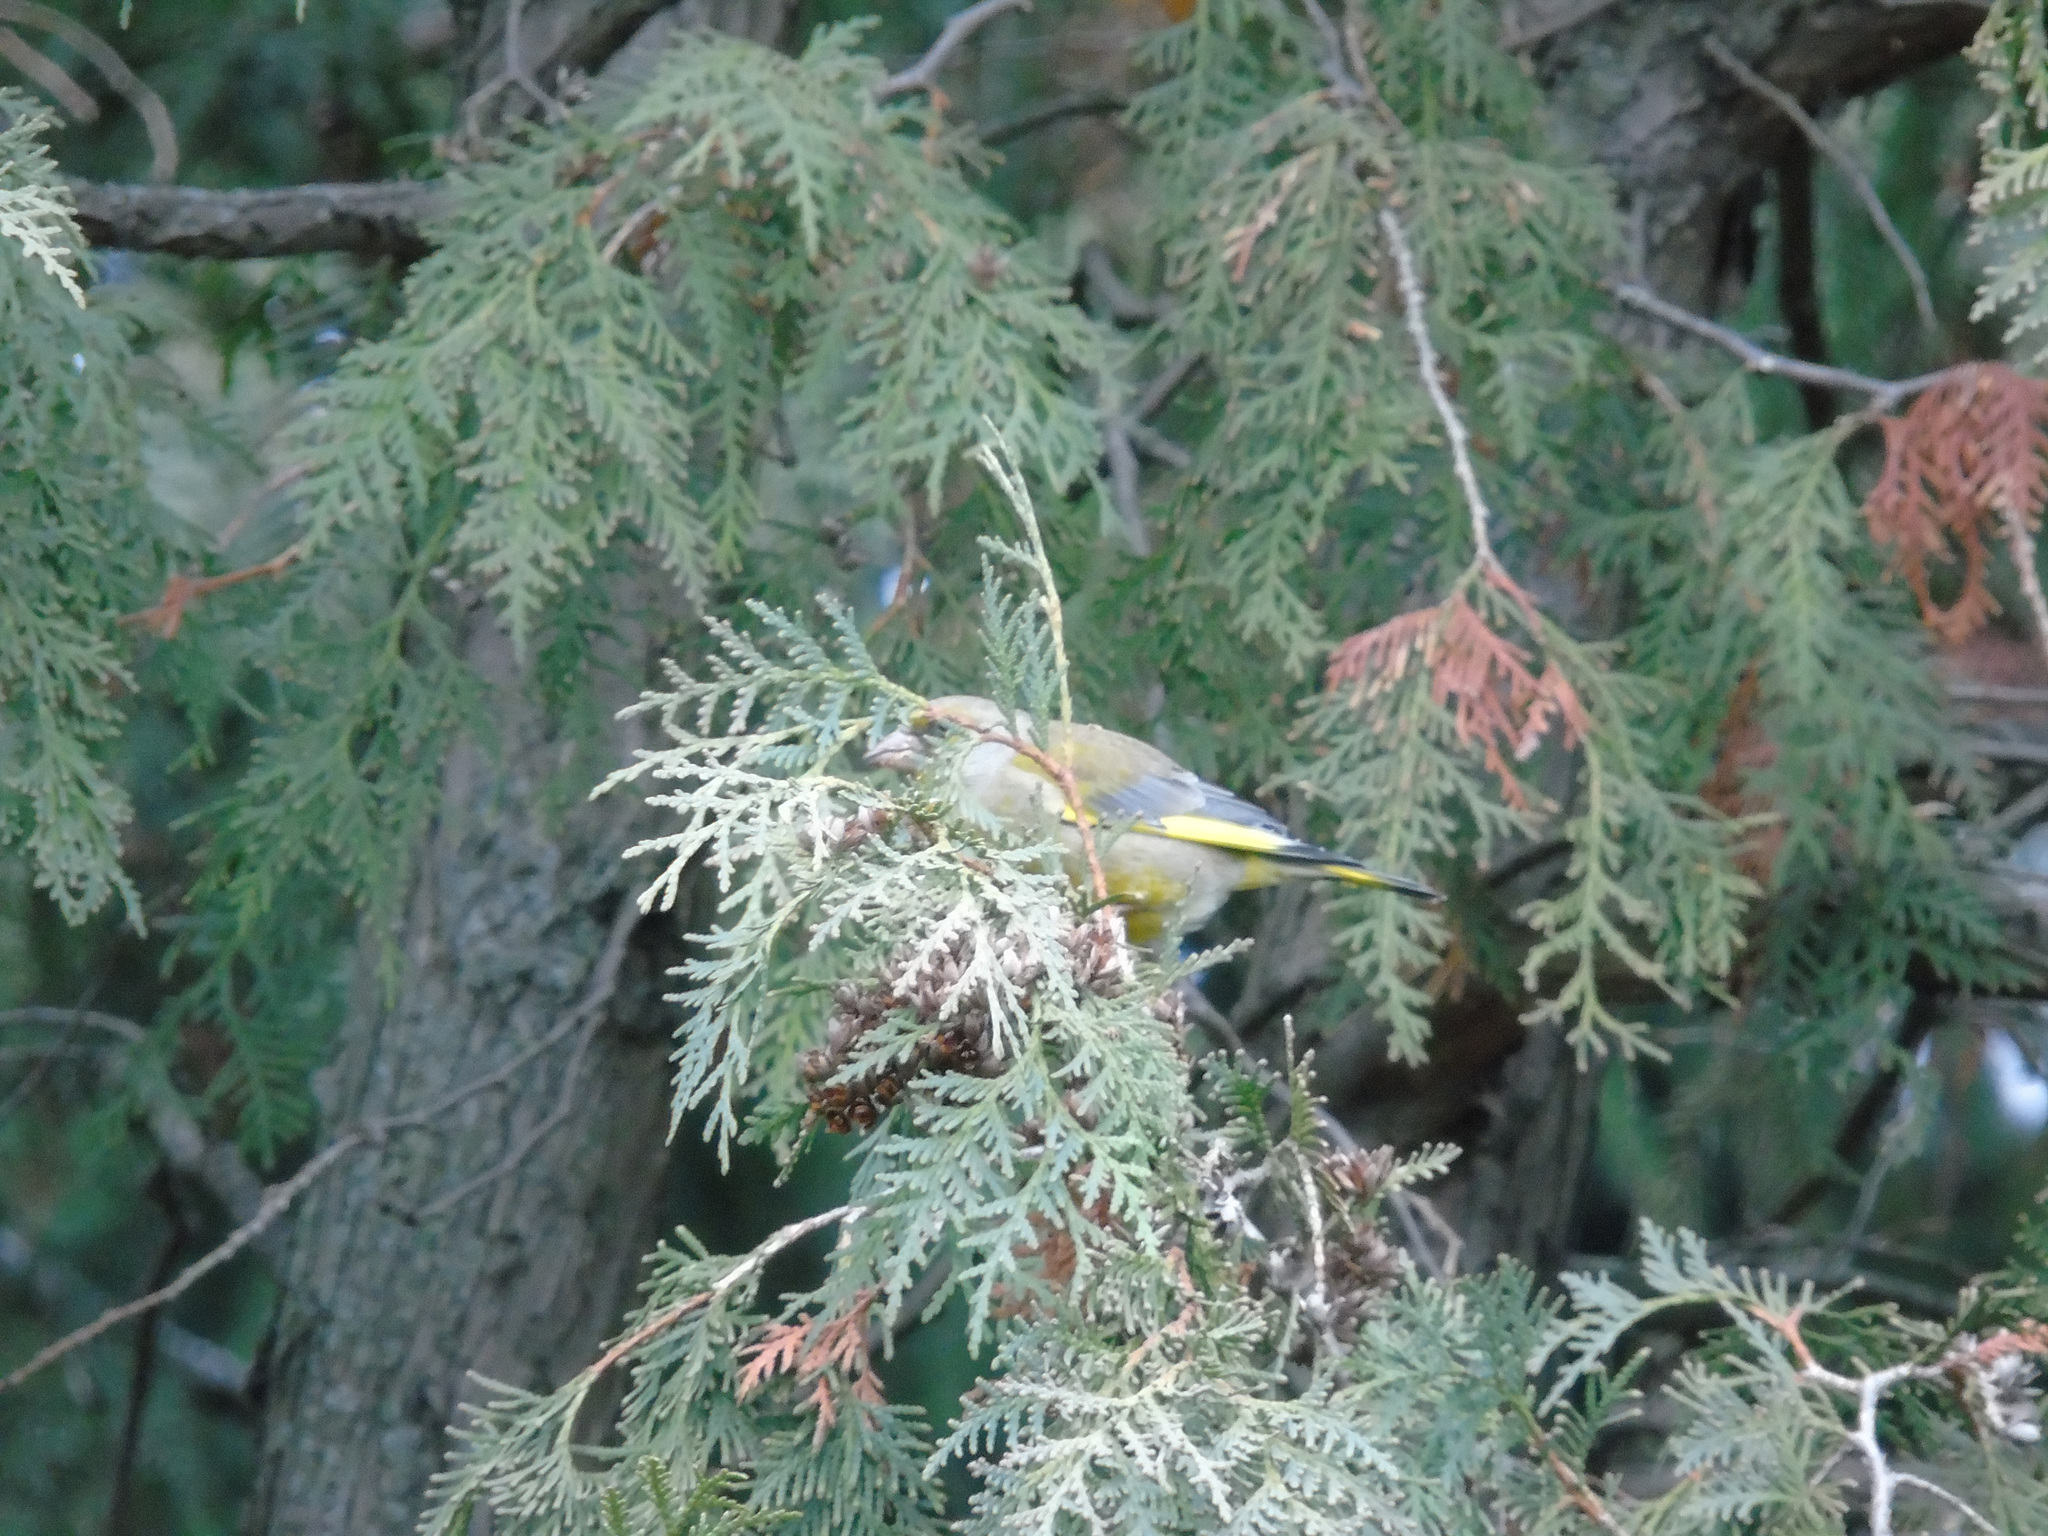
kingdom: Plantae
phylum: Tracheophyta
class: Liliopsida
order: Poales
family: Poaceae
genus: Chloris
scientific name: Chloris chloris
